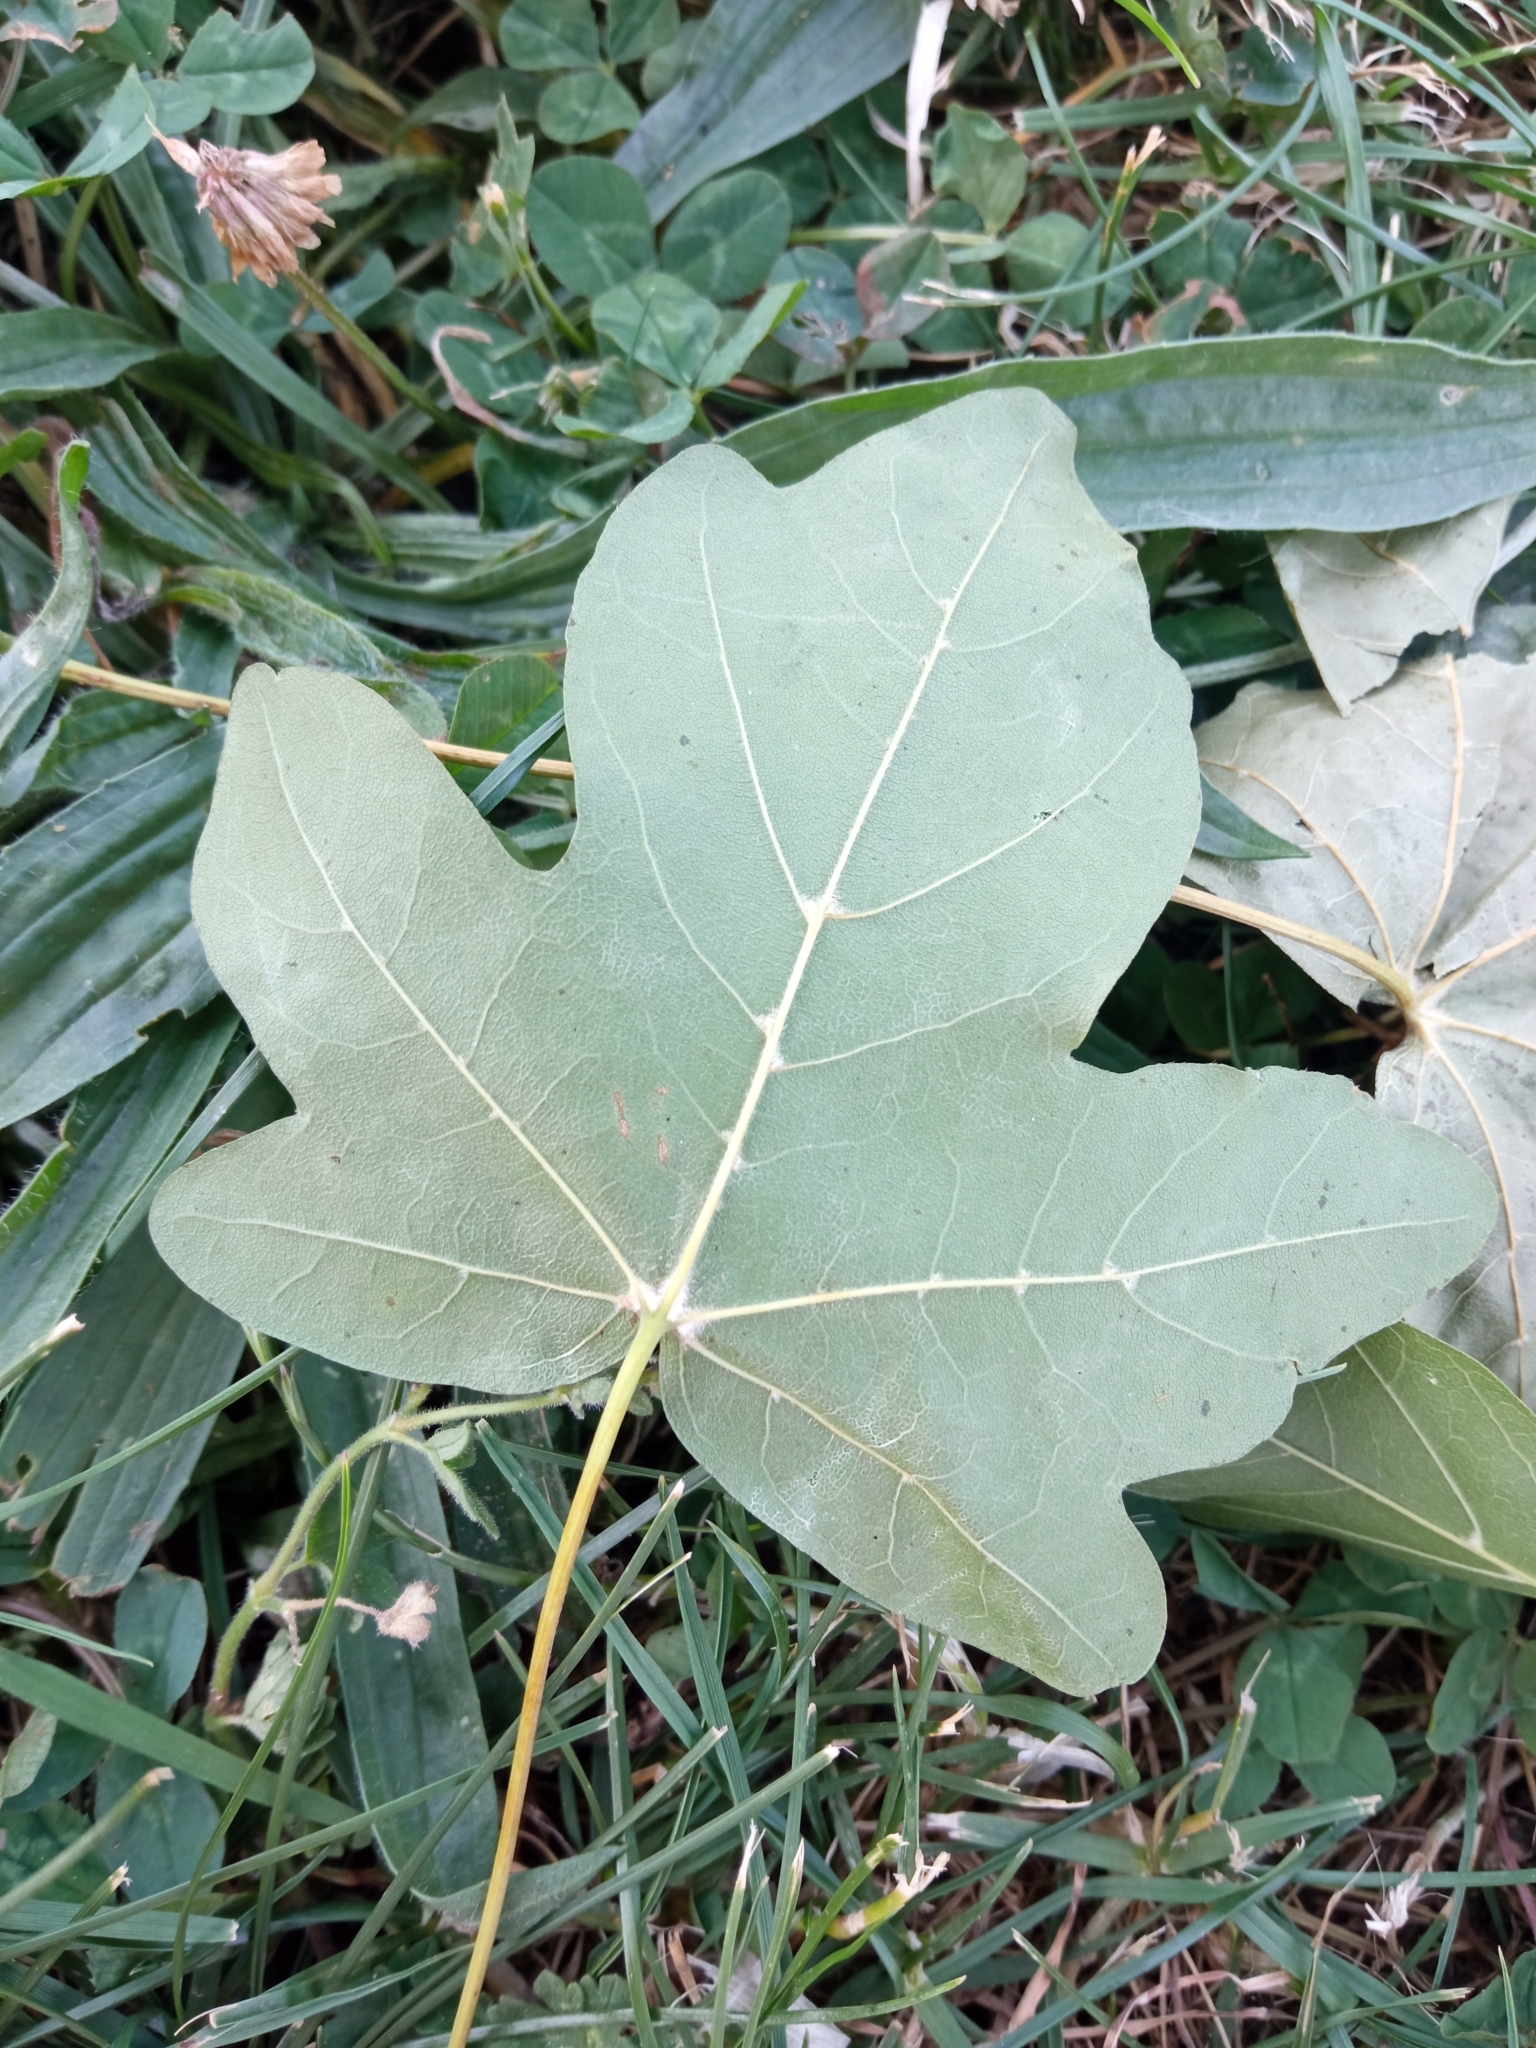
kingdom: Plantae
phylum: Tracheophyta
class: Magnoliopsida
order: Sapindales
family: Sapindaceae
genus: Acer
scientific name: Acer campestre
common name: Field maple
